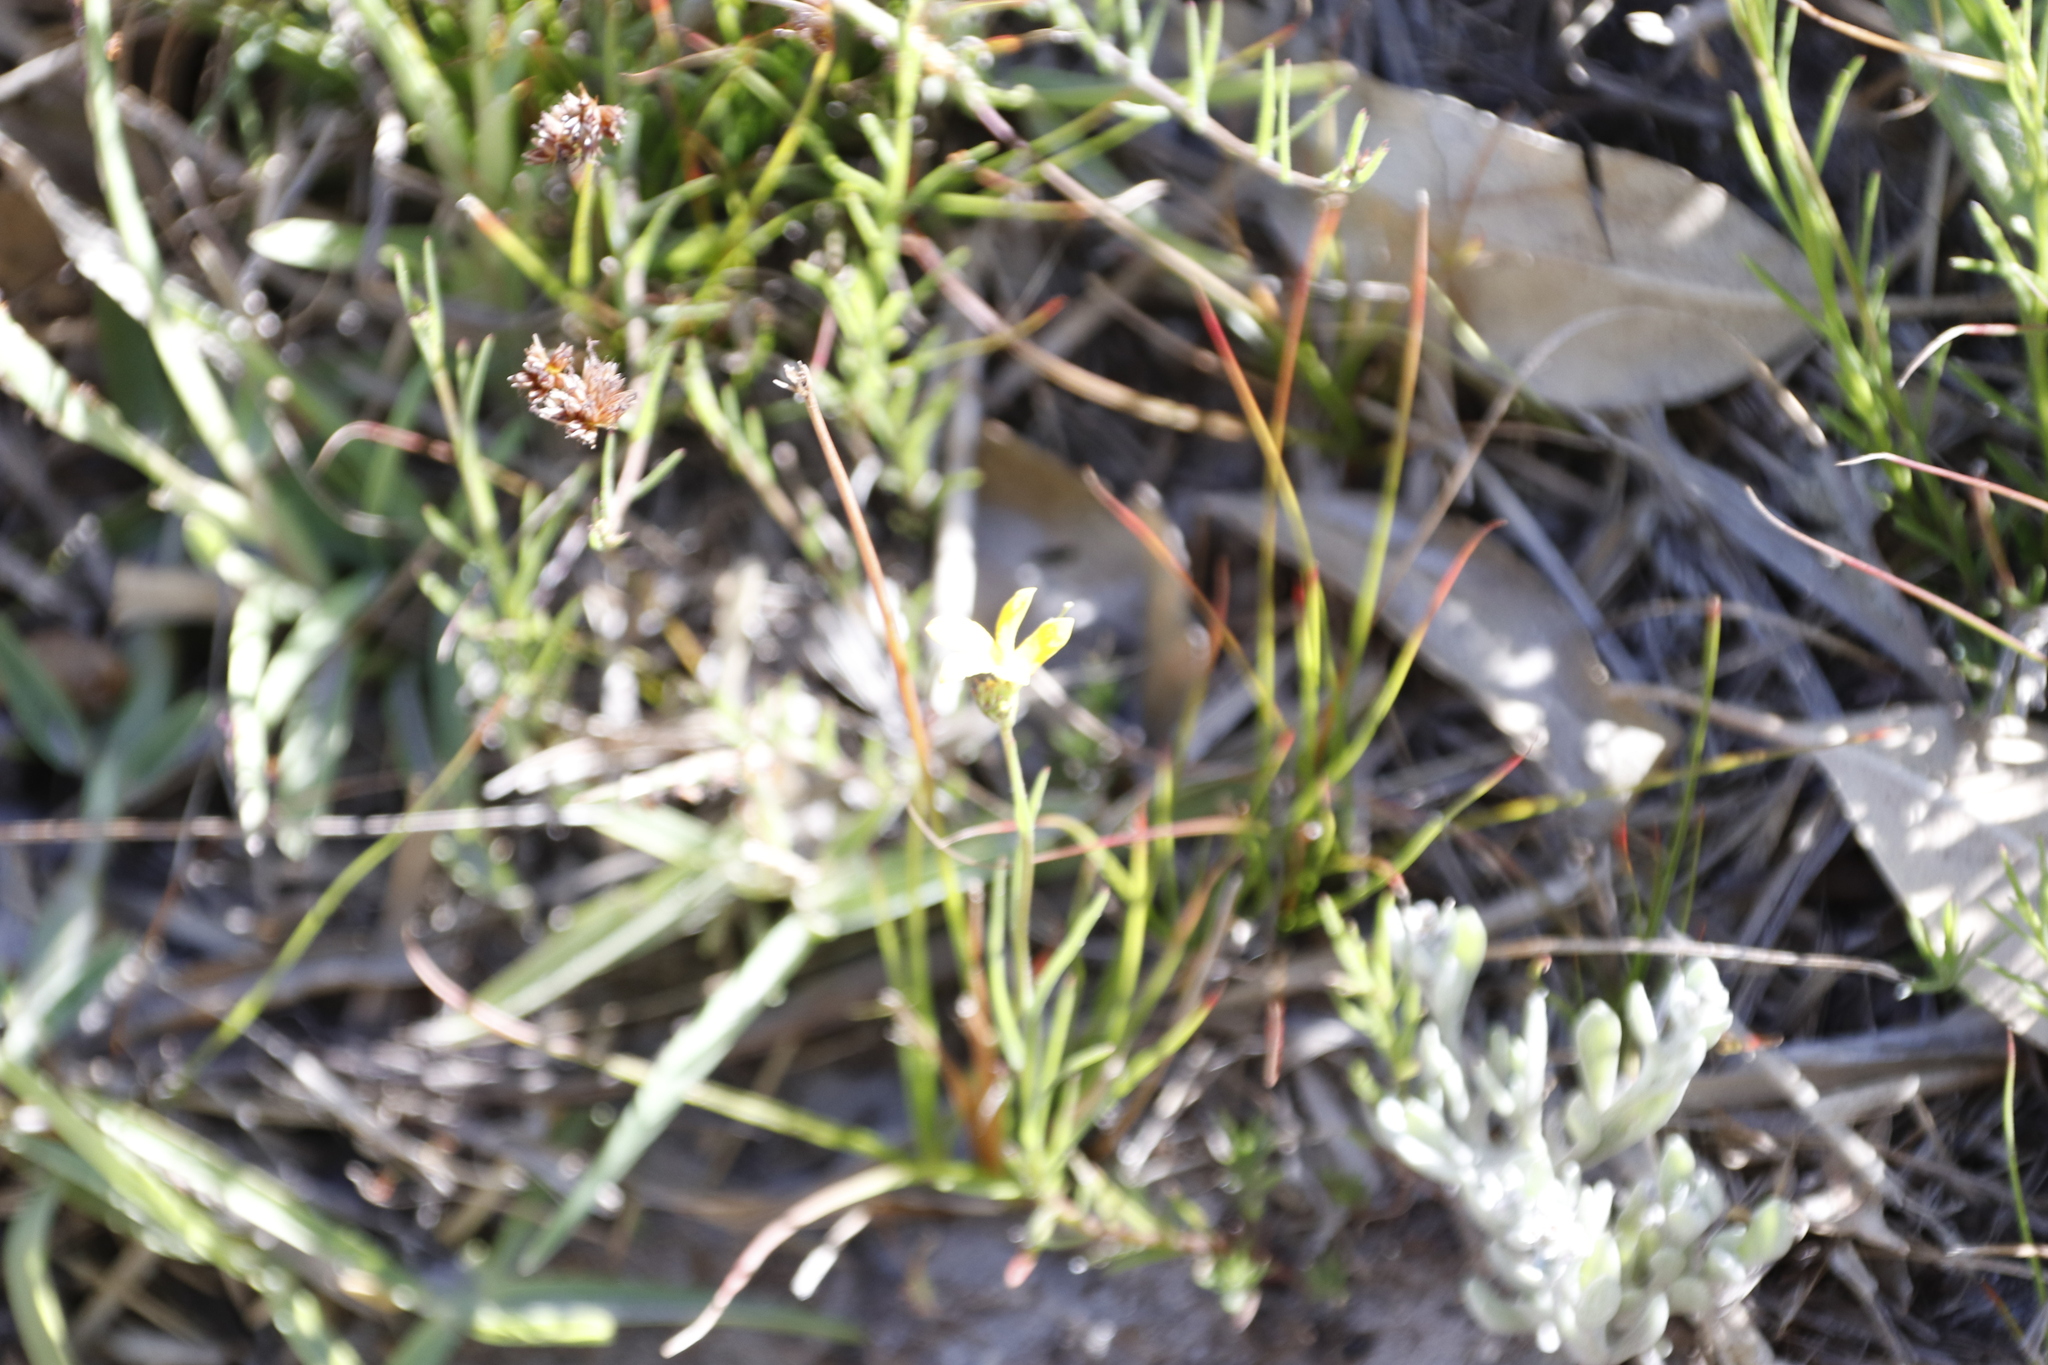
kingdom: Plantae
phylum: Tracheophyta
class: Magnoliopsida
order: Asterales
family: Campanulaceae
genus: Monopsis
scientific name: Monopsis lutea
